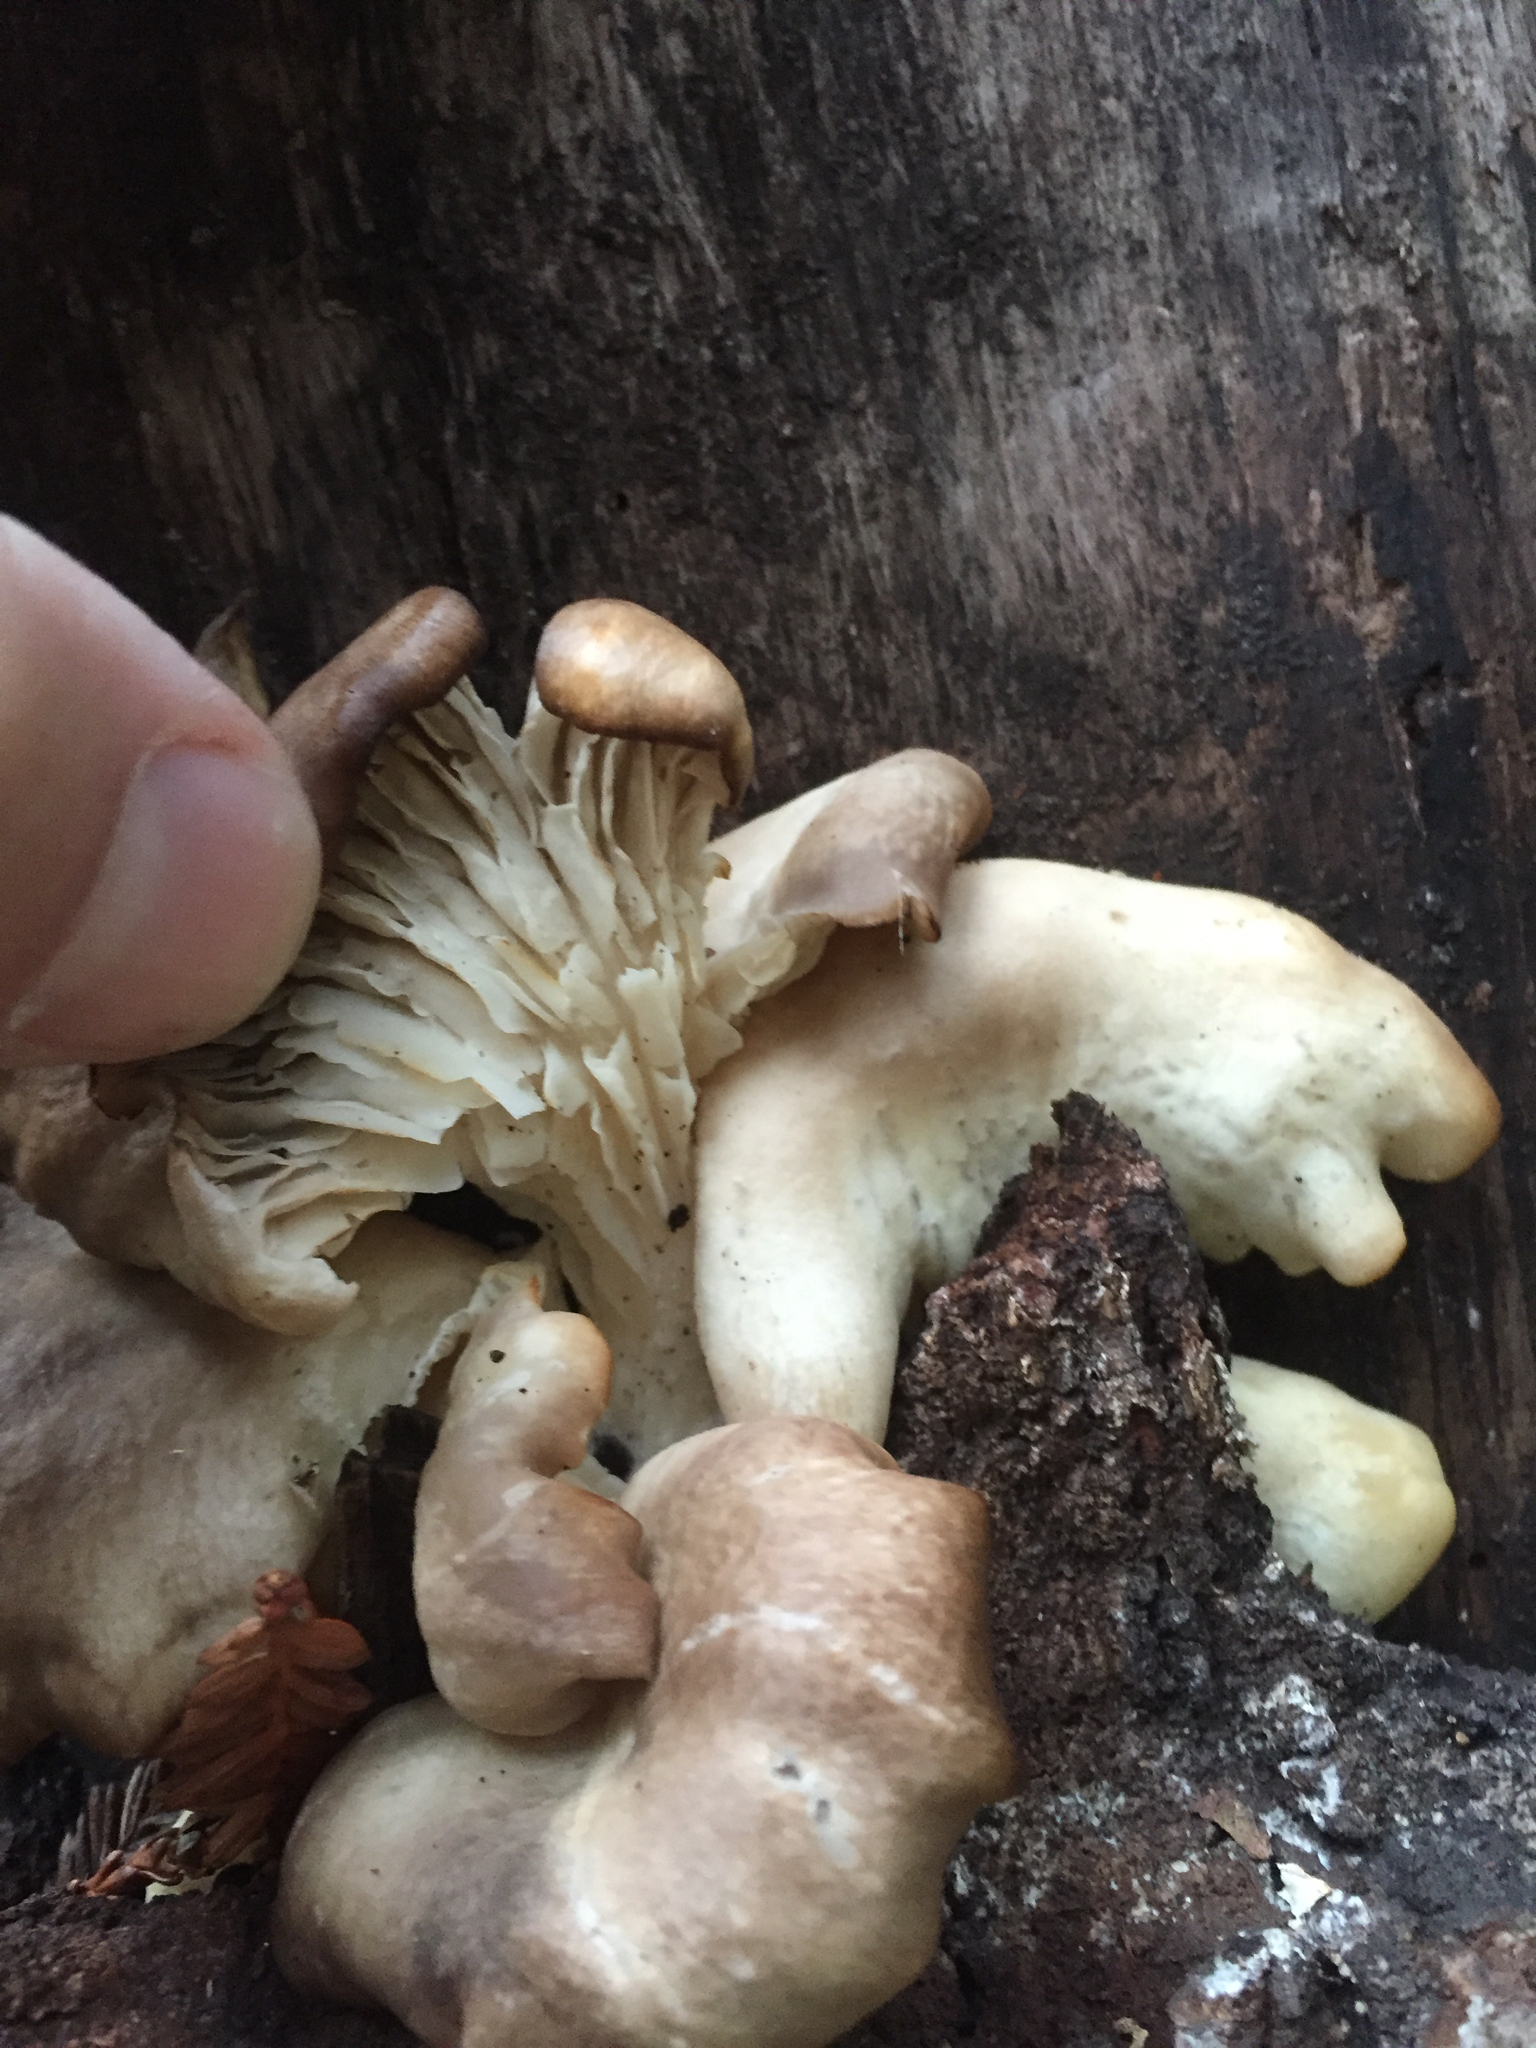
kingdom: Fungi
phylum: Basidiomycota
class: Agaricomycetes
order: Agaricales
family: Pleurotaceae
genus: Pleurotus
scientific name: Pleurotus ostreatus
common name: Oyster mushroom
